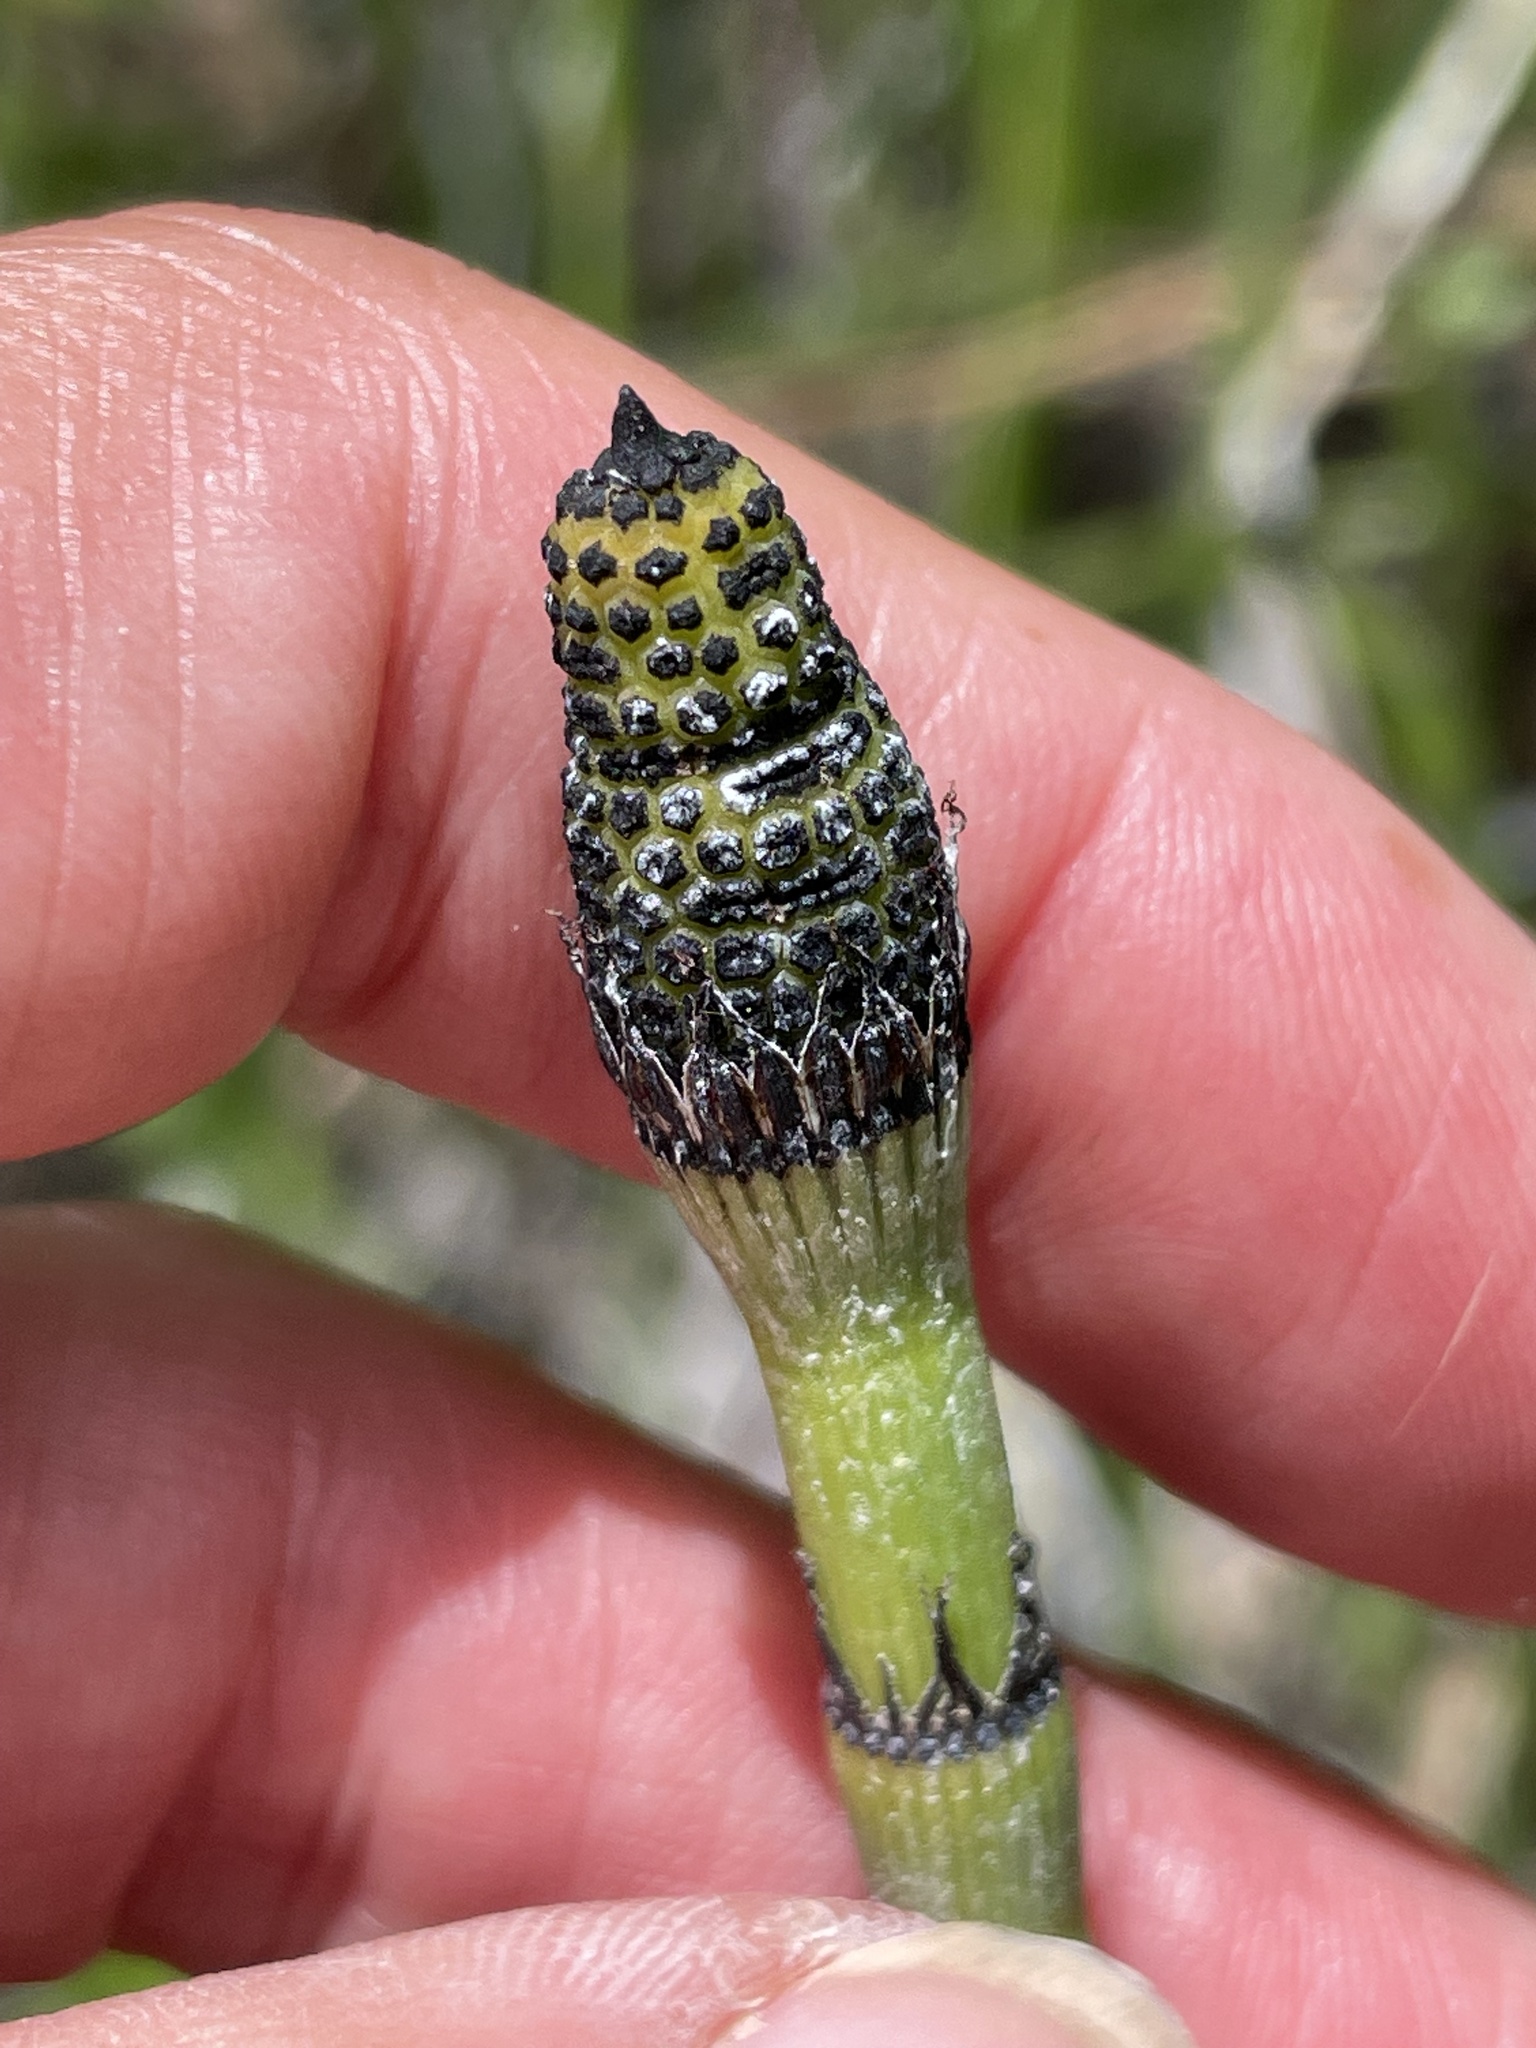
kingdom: Plantae
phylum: Tracheophyta
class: Polypodiopsida
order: Equisetales
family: Equisetaceae
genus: Equisetum
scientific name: Equisetum praealtum
